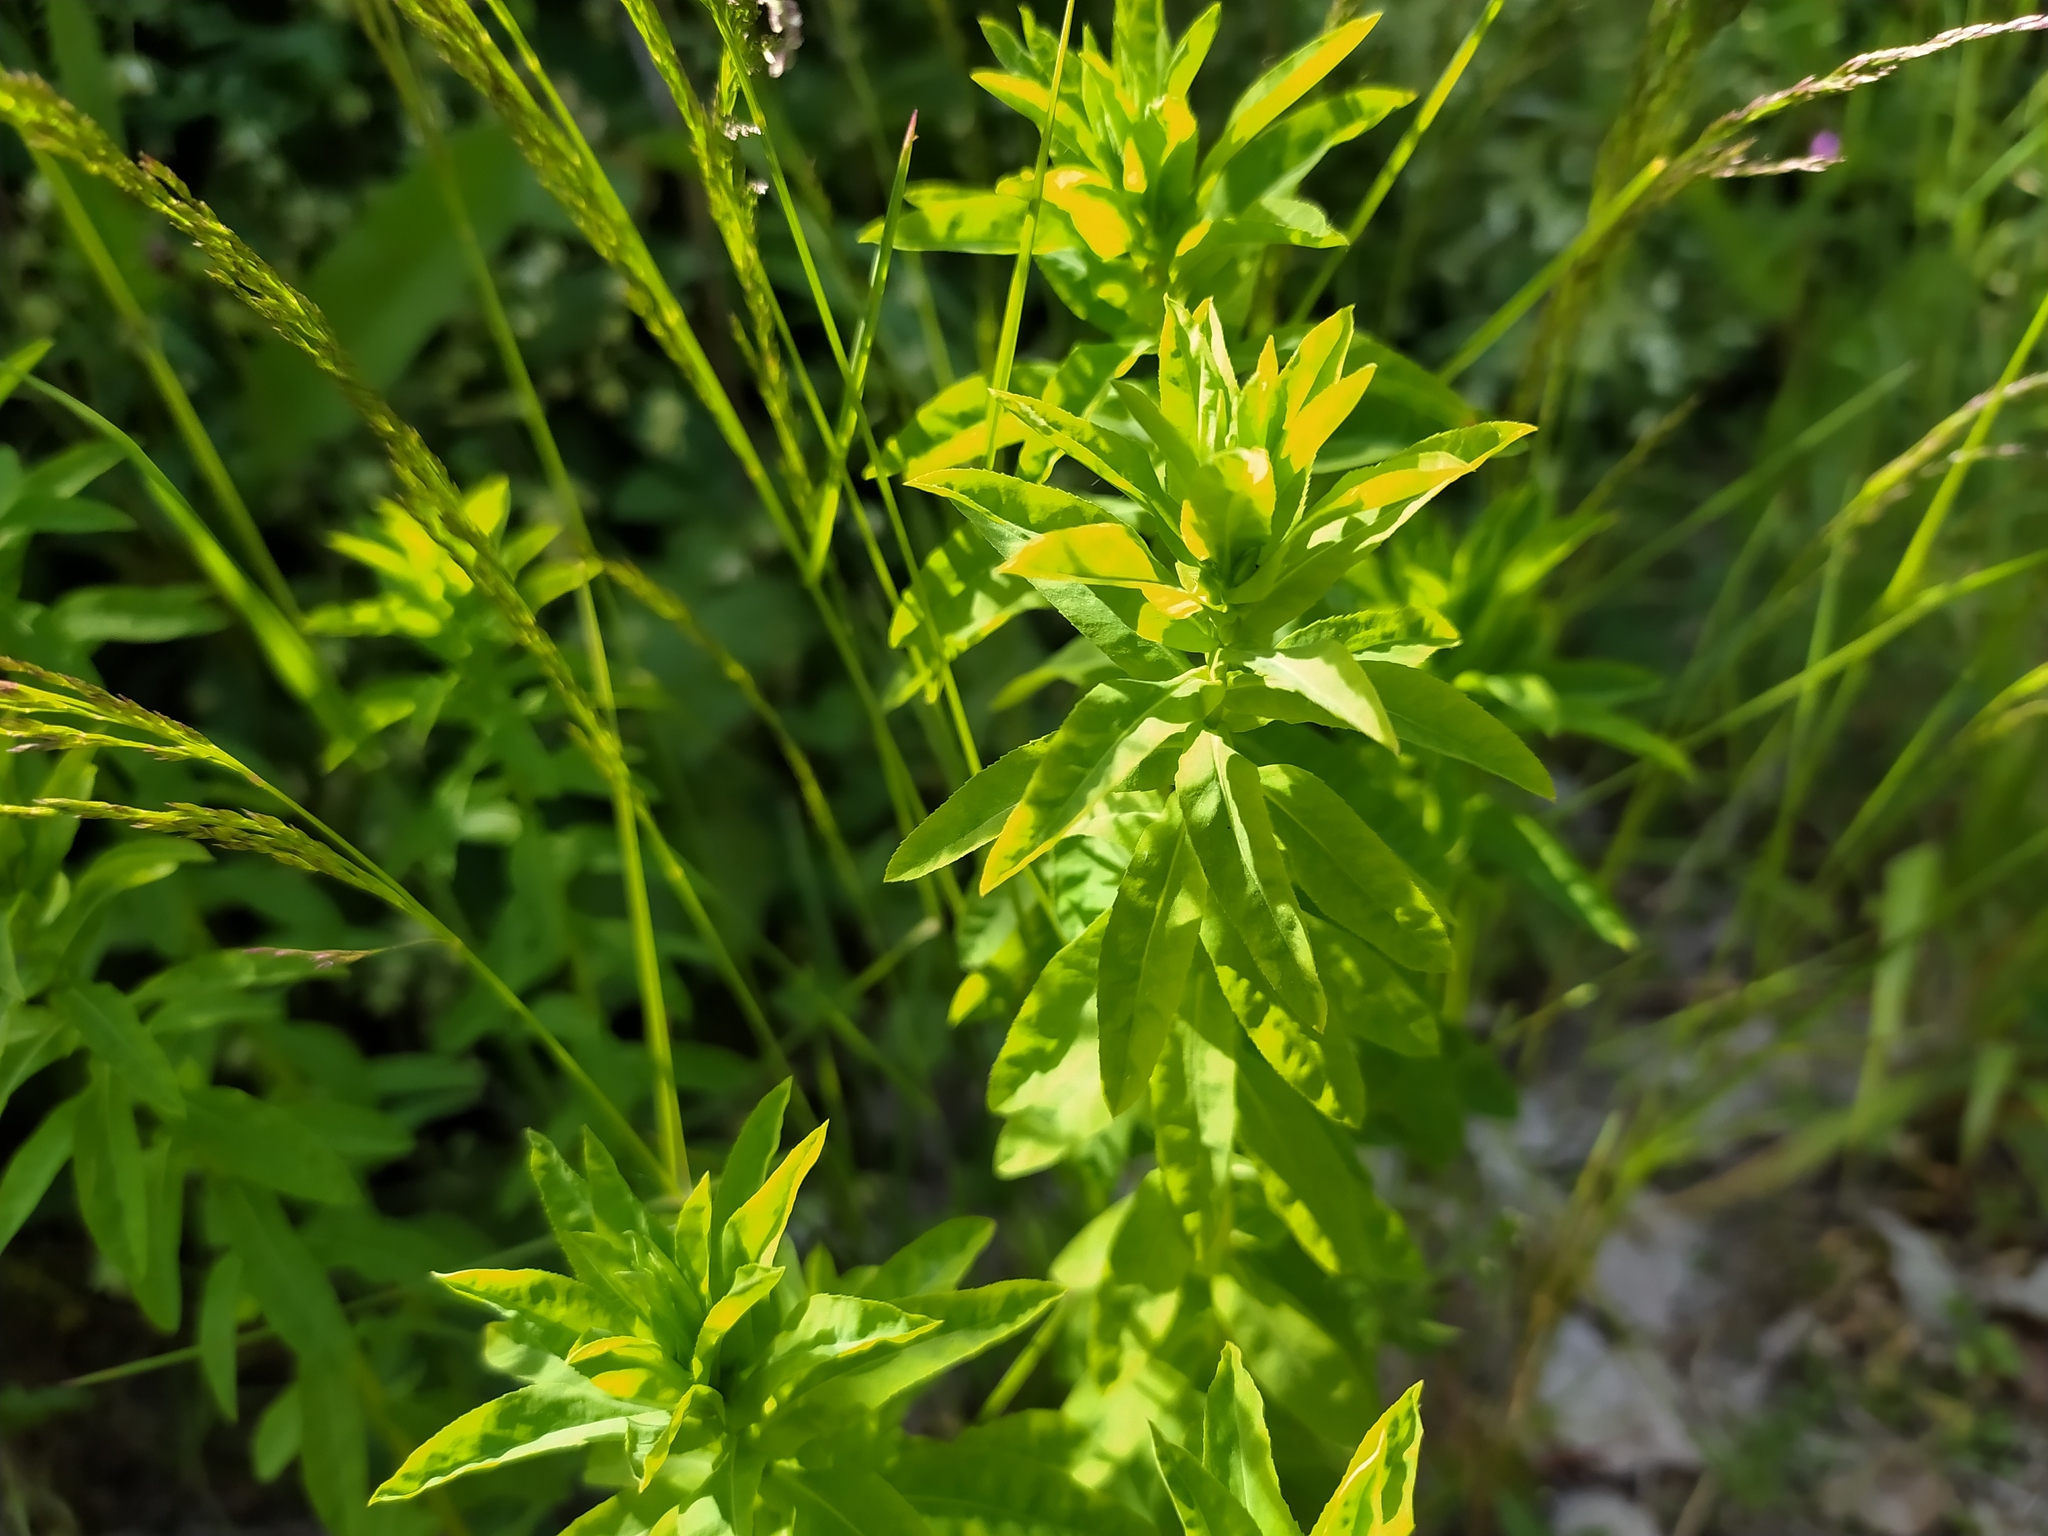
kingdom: Plantae
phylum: Tracheophyta
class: Magnoliopsida
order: Malpighiales
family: Euphorbiaceae
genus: Euphorbia
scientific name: Euphorbia stricta
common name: Upright spurge
